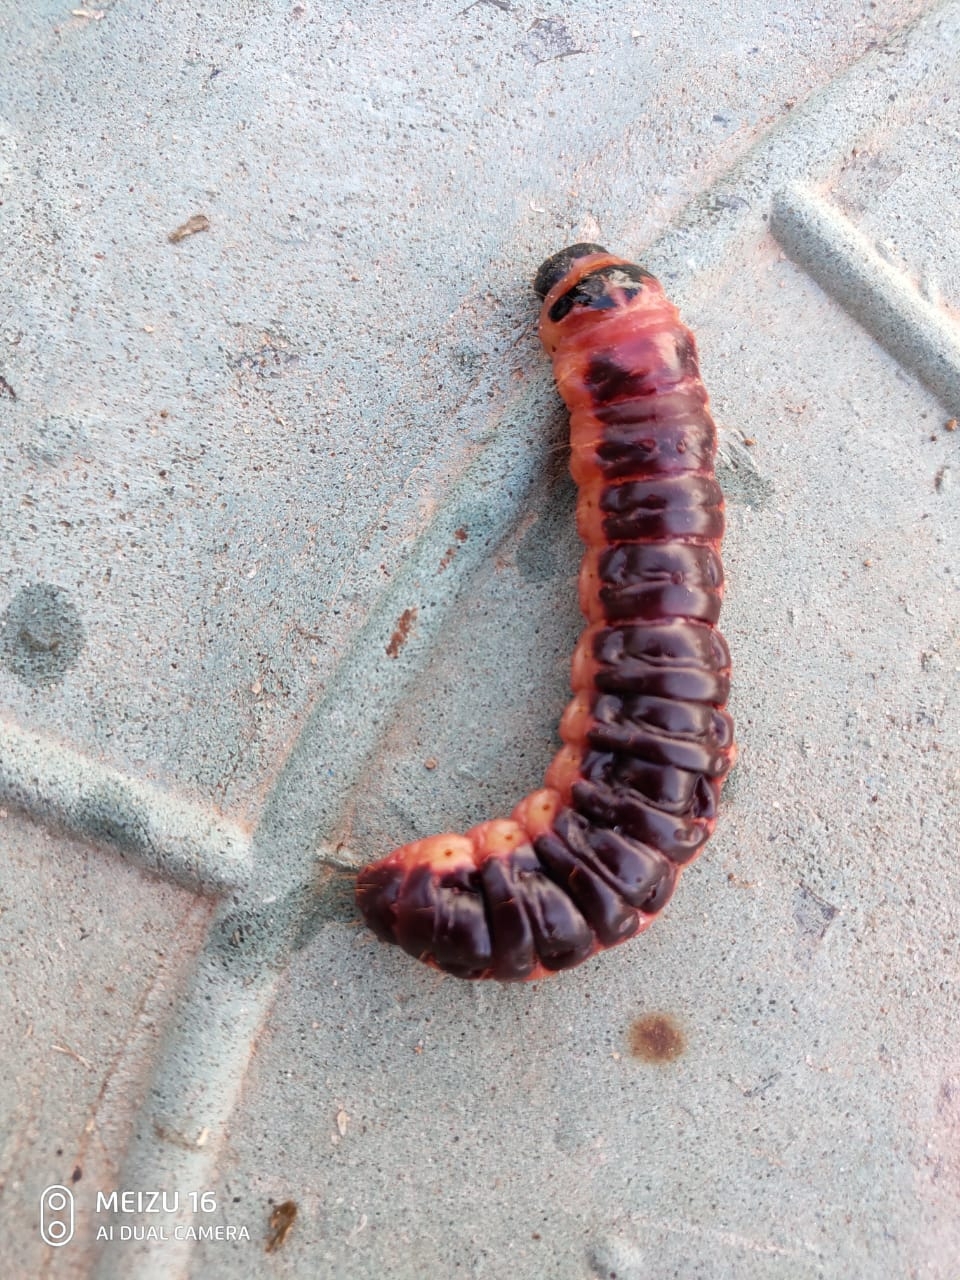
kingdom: Animalia
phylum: Arthropoda
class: Insecta
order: Lepidoptera
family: Cossidae
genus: Cossus
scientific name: Cossus cossus
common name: Goat moth
